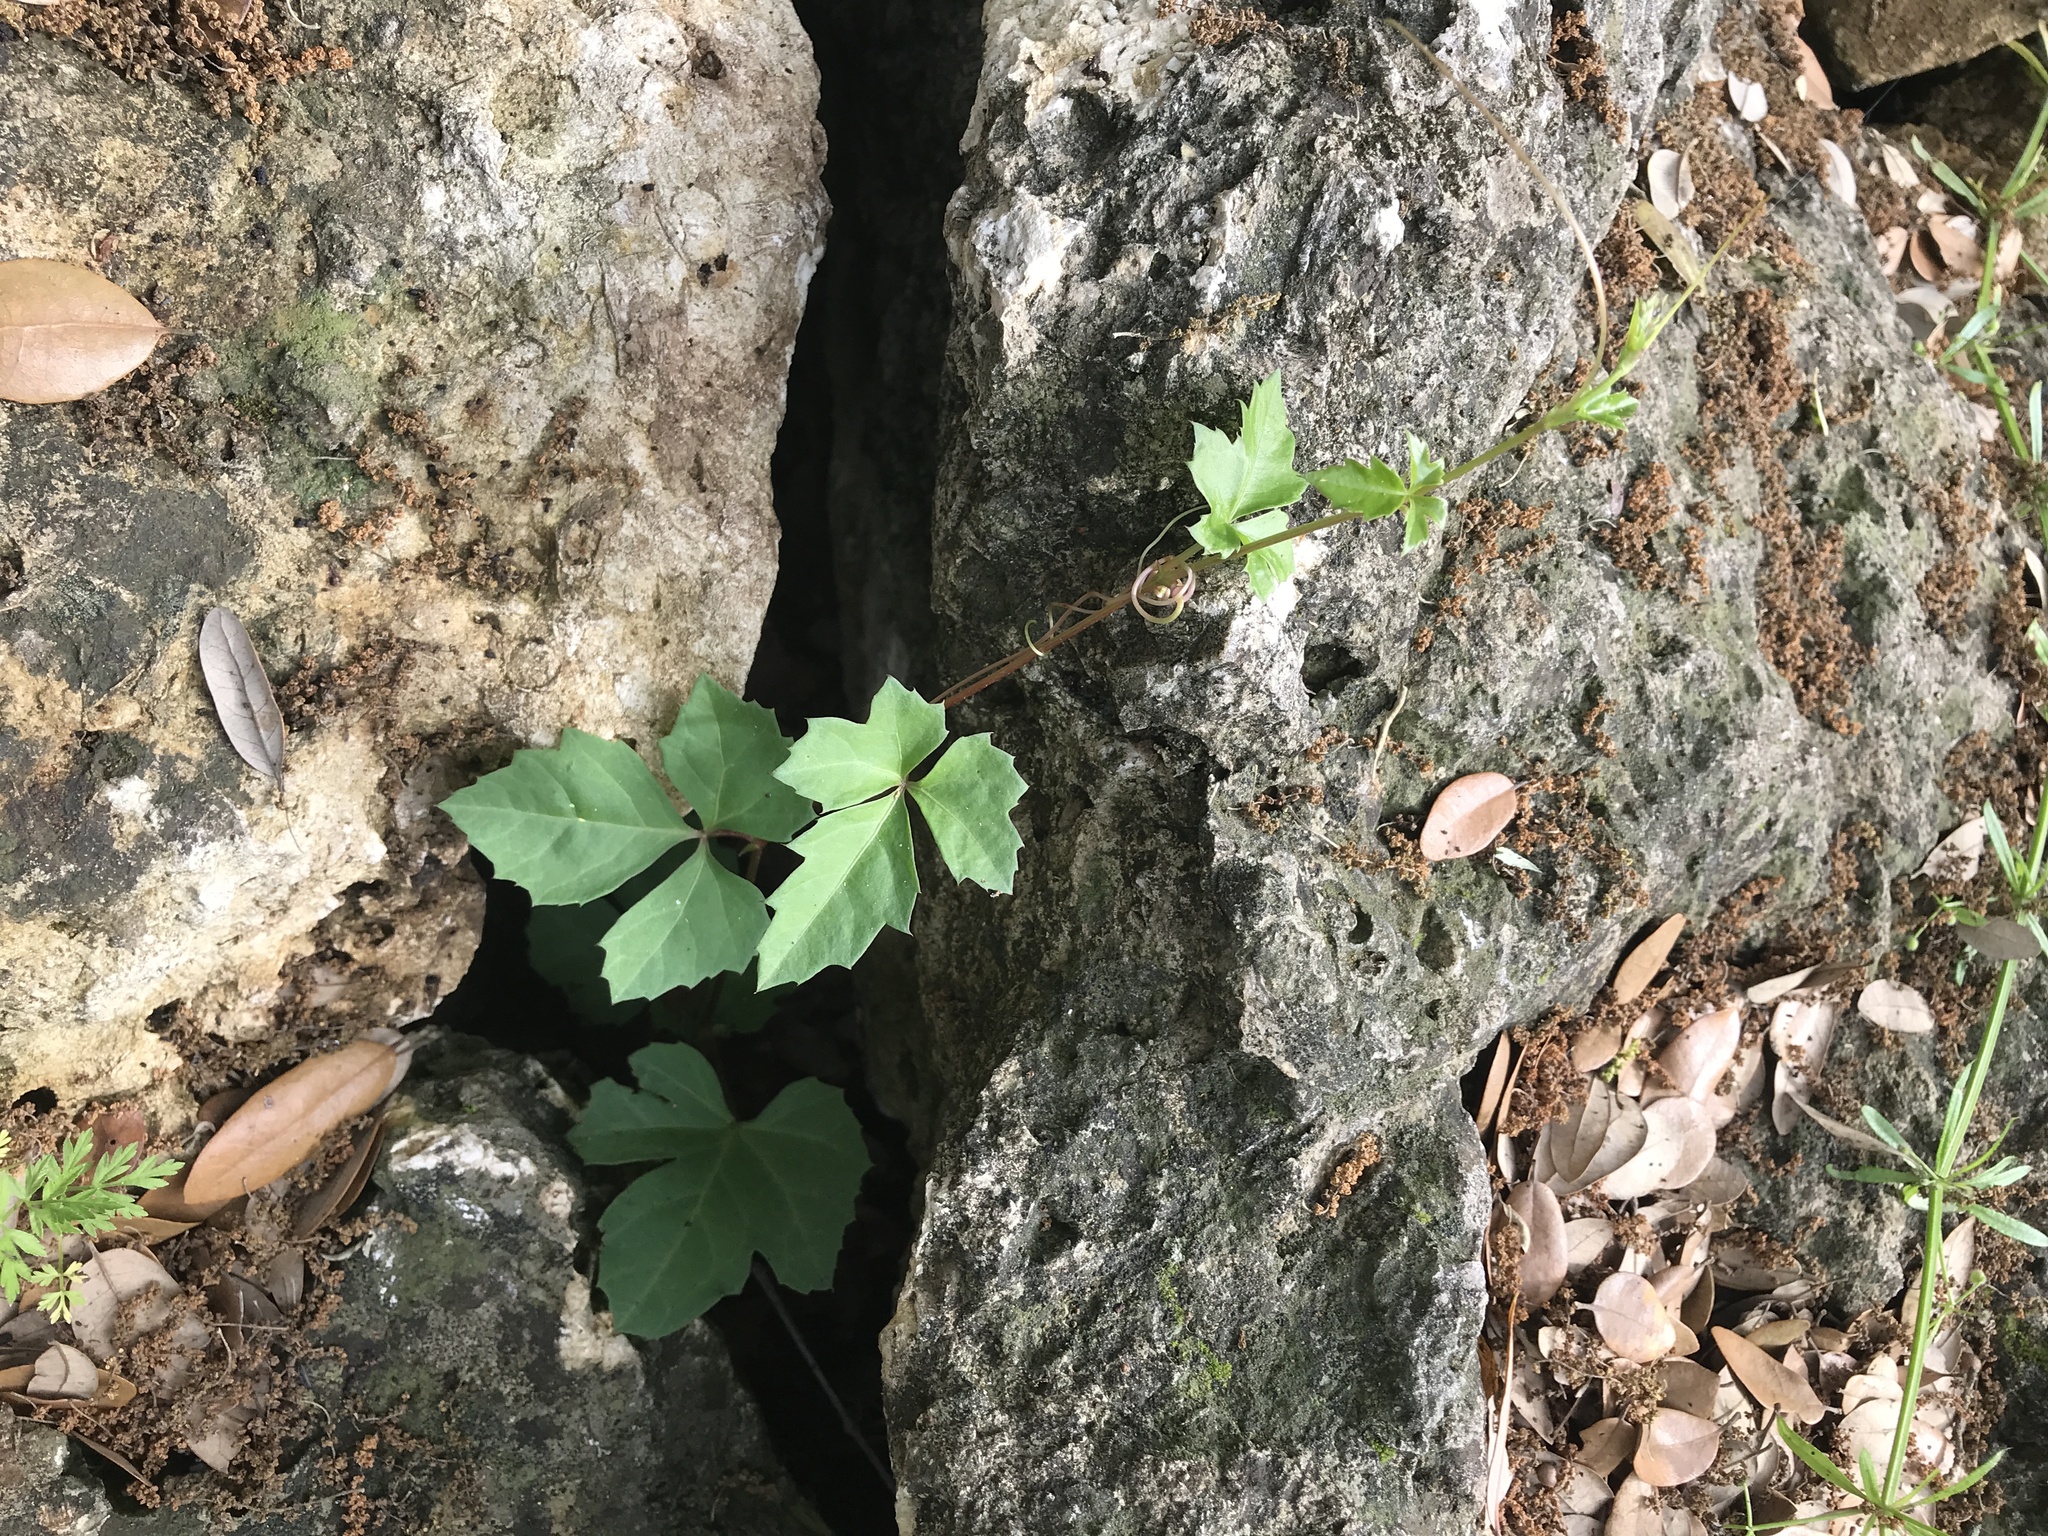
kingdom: Plantae
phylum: Tracheophyta
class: Magnoliopsida
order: Vitales
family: Vitaceae
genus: Cissus
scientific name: Cissus trifoliata
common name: Vine-sorrel
